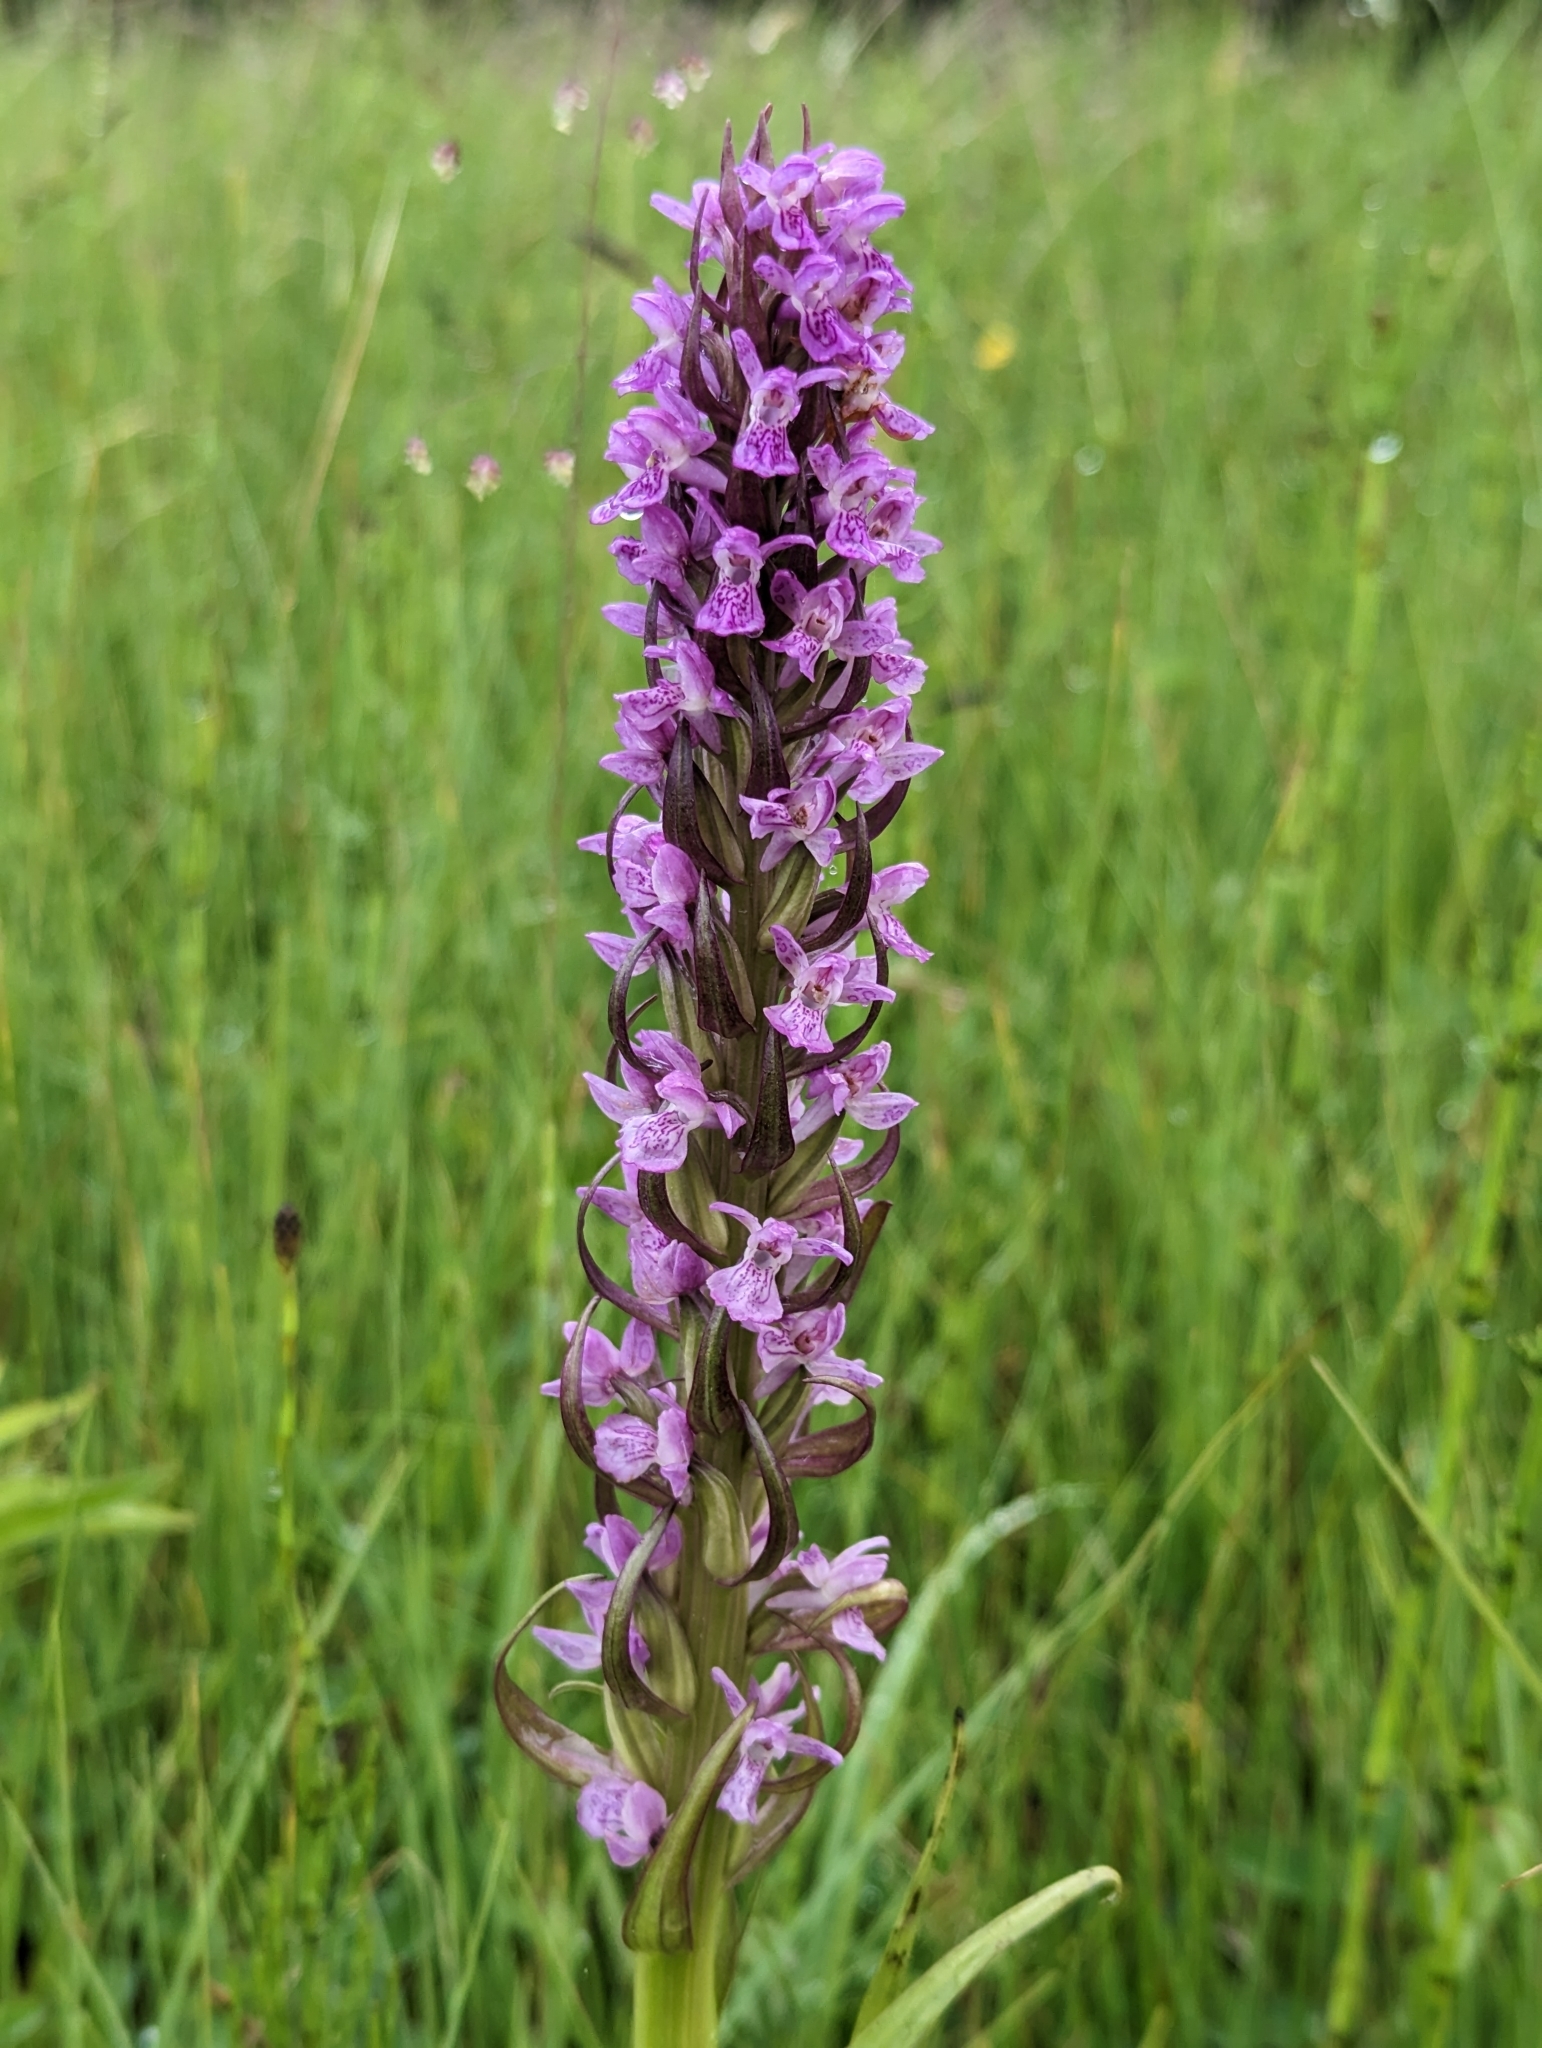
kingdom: Plantae
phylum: Tracheophyta
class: Liliopsida
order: Asparagales
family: Orchidaceae
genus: Dactylorhiza
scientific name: Dactylorhiza incarnata
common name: Early marsh-orchid
